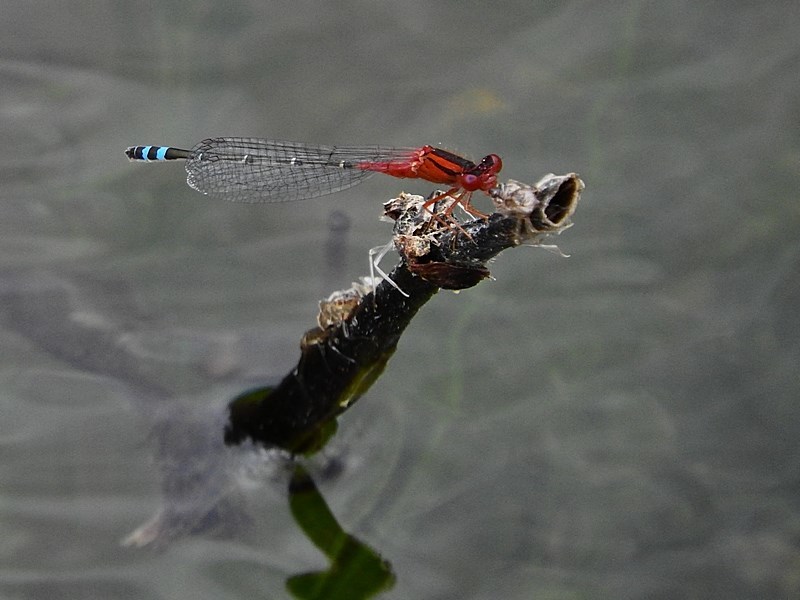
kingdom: Animalia
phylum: Arthropoda
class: Insecta
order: Odonata
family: Coenagrionidae
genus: Xanthagrion
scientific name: Xanthagrion erythroneurum
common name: Red and blue damsel
